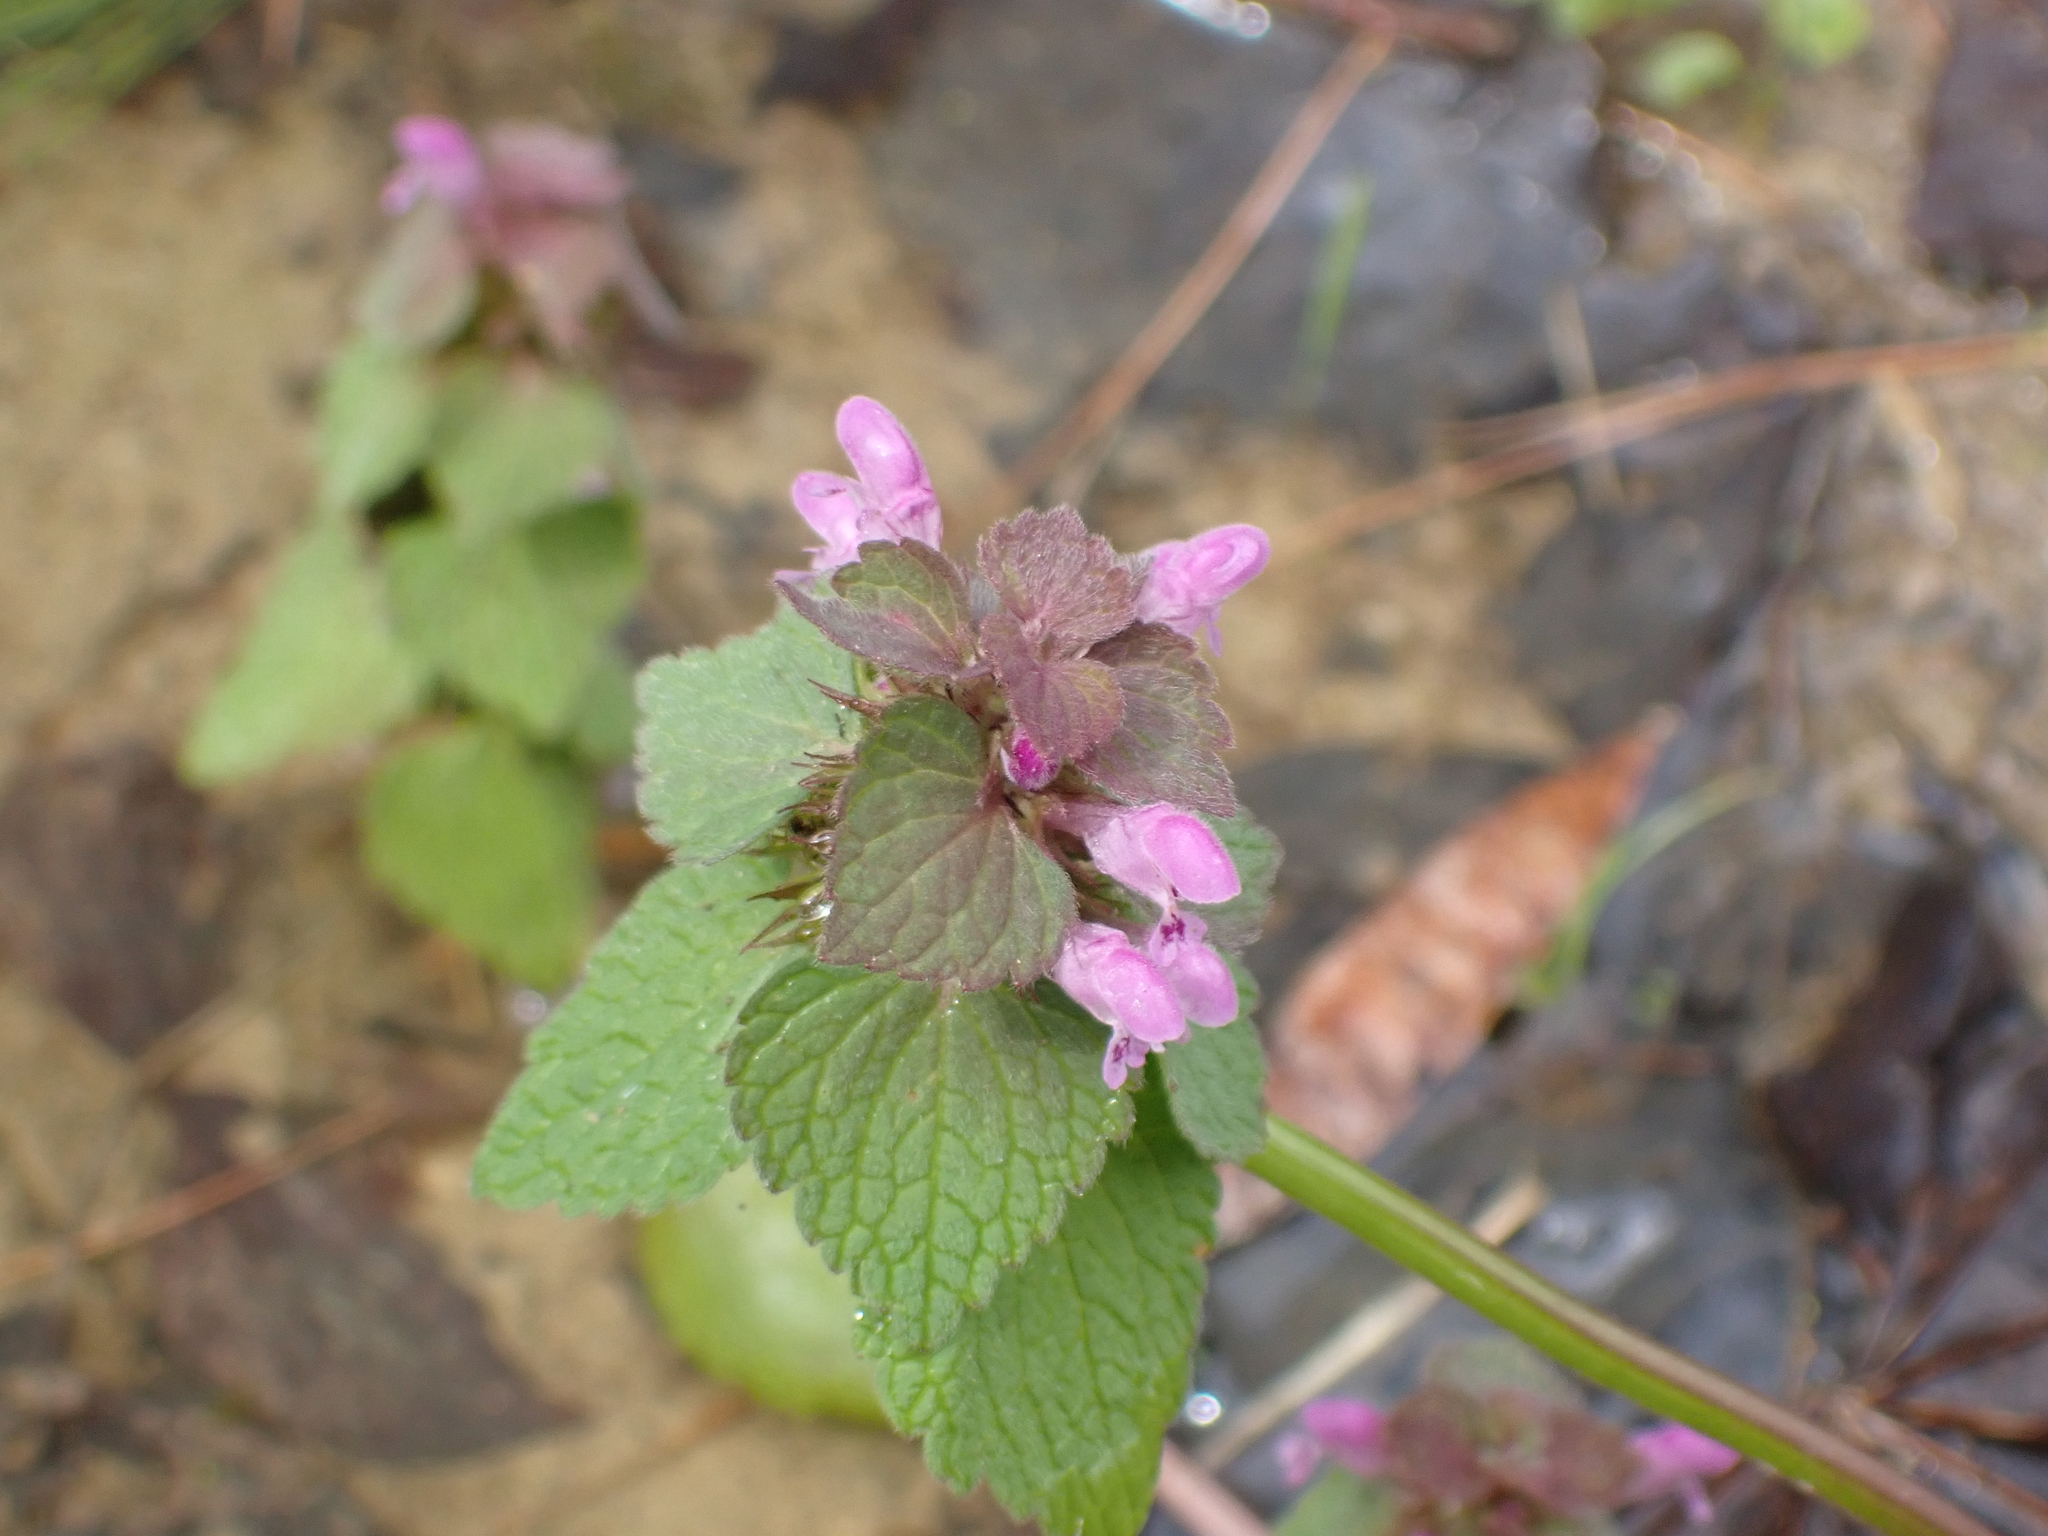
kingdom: Plantae
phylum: Tracheophyta
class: Magnoliopsida
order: Lamiales
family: Lamiaceae
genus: Lamium
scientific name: Lamium purpureum
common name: Red dead-nettle
